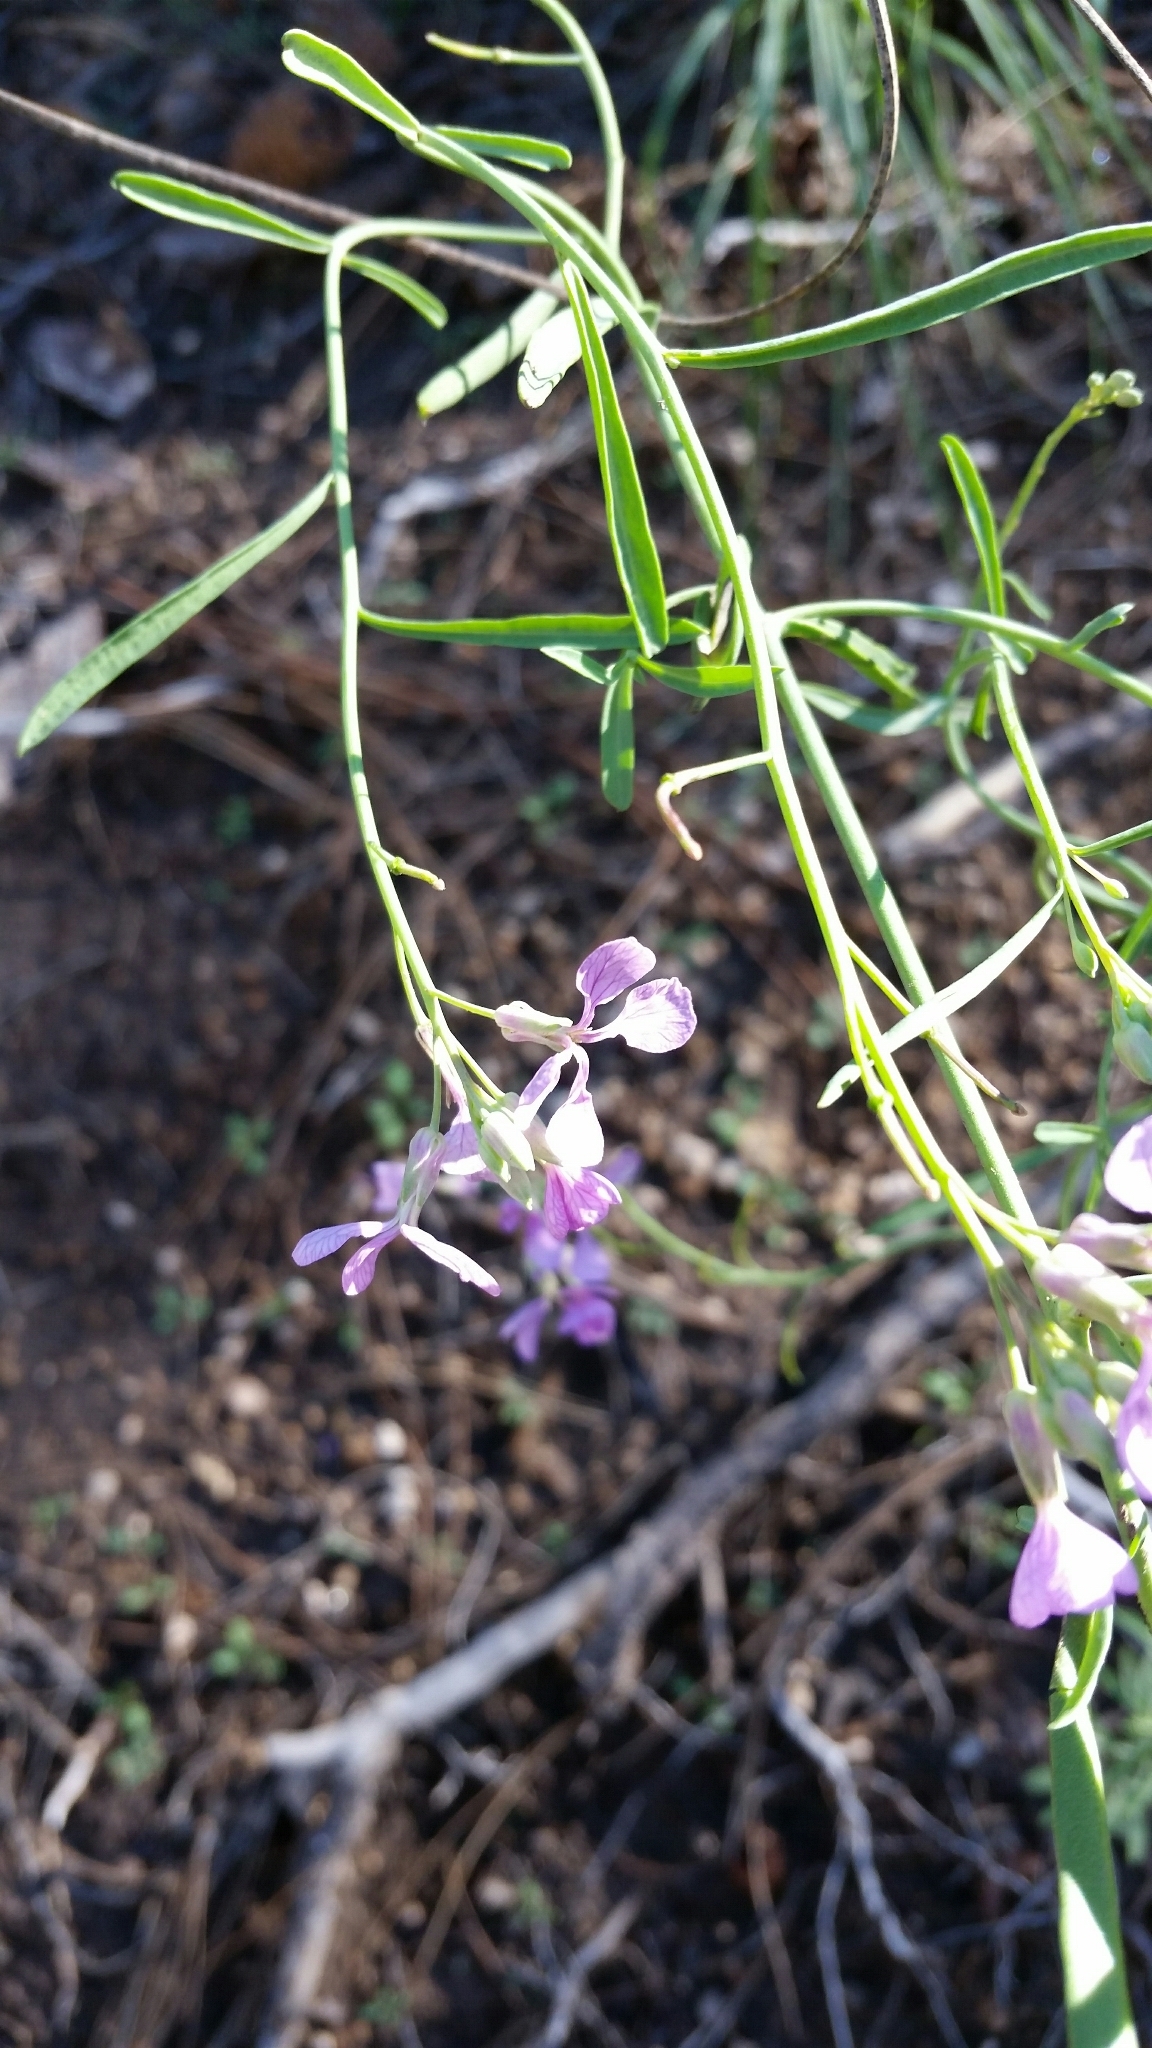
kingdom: Plantae
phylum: Tracheophyta
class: Magnoliopsida
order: Brassicales
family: Brassicaceae
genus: Hesperidanthus
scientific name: Hesperidanthus linearifolius
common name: Slim-leaf plains mustard
